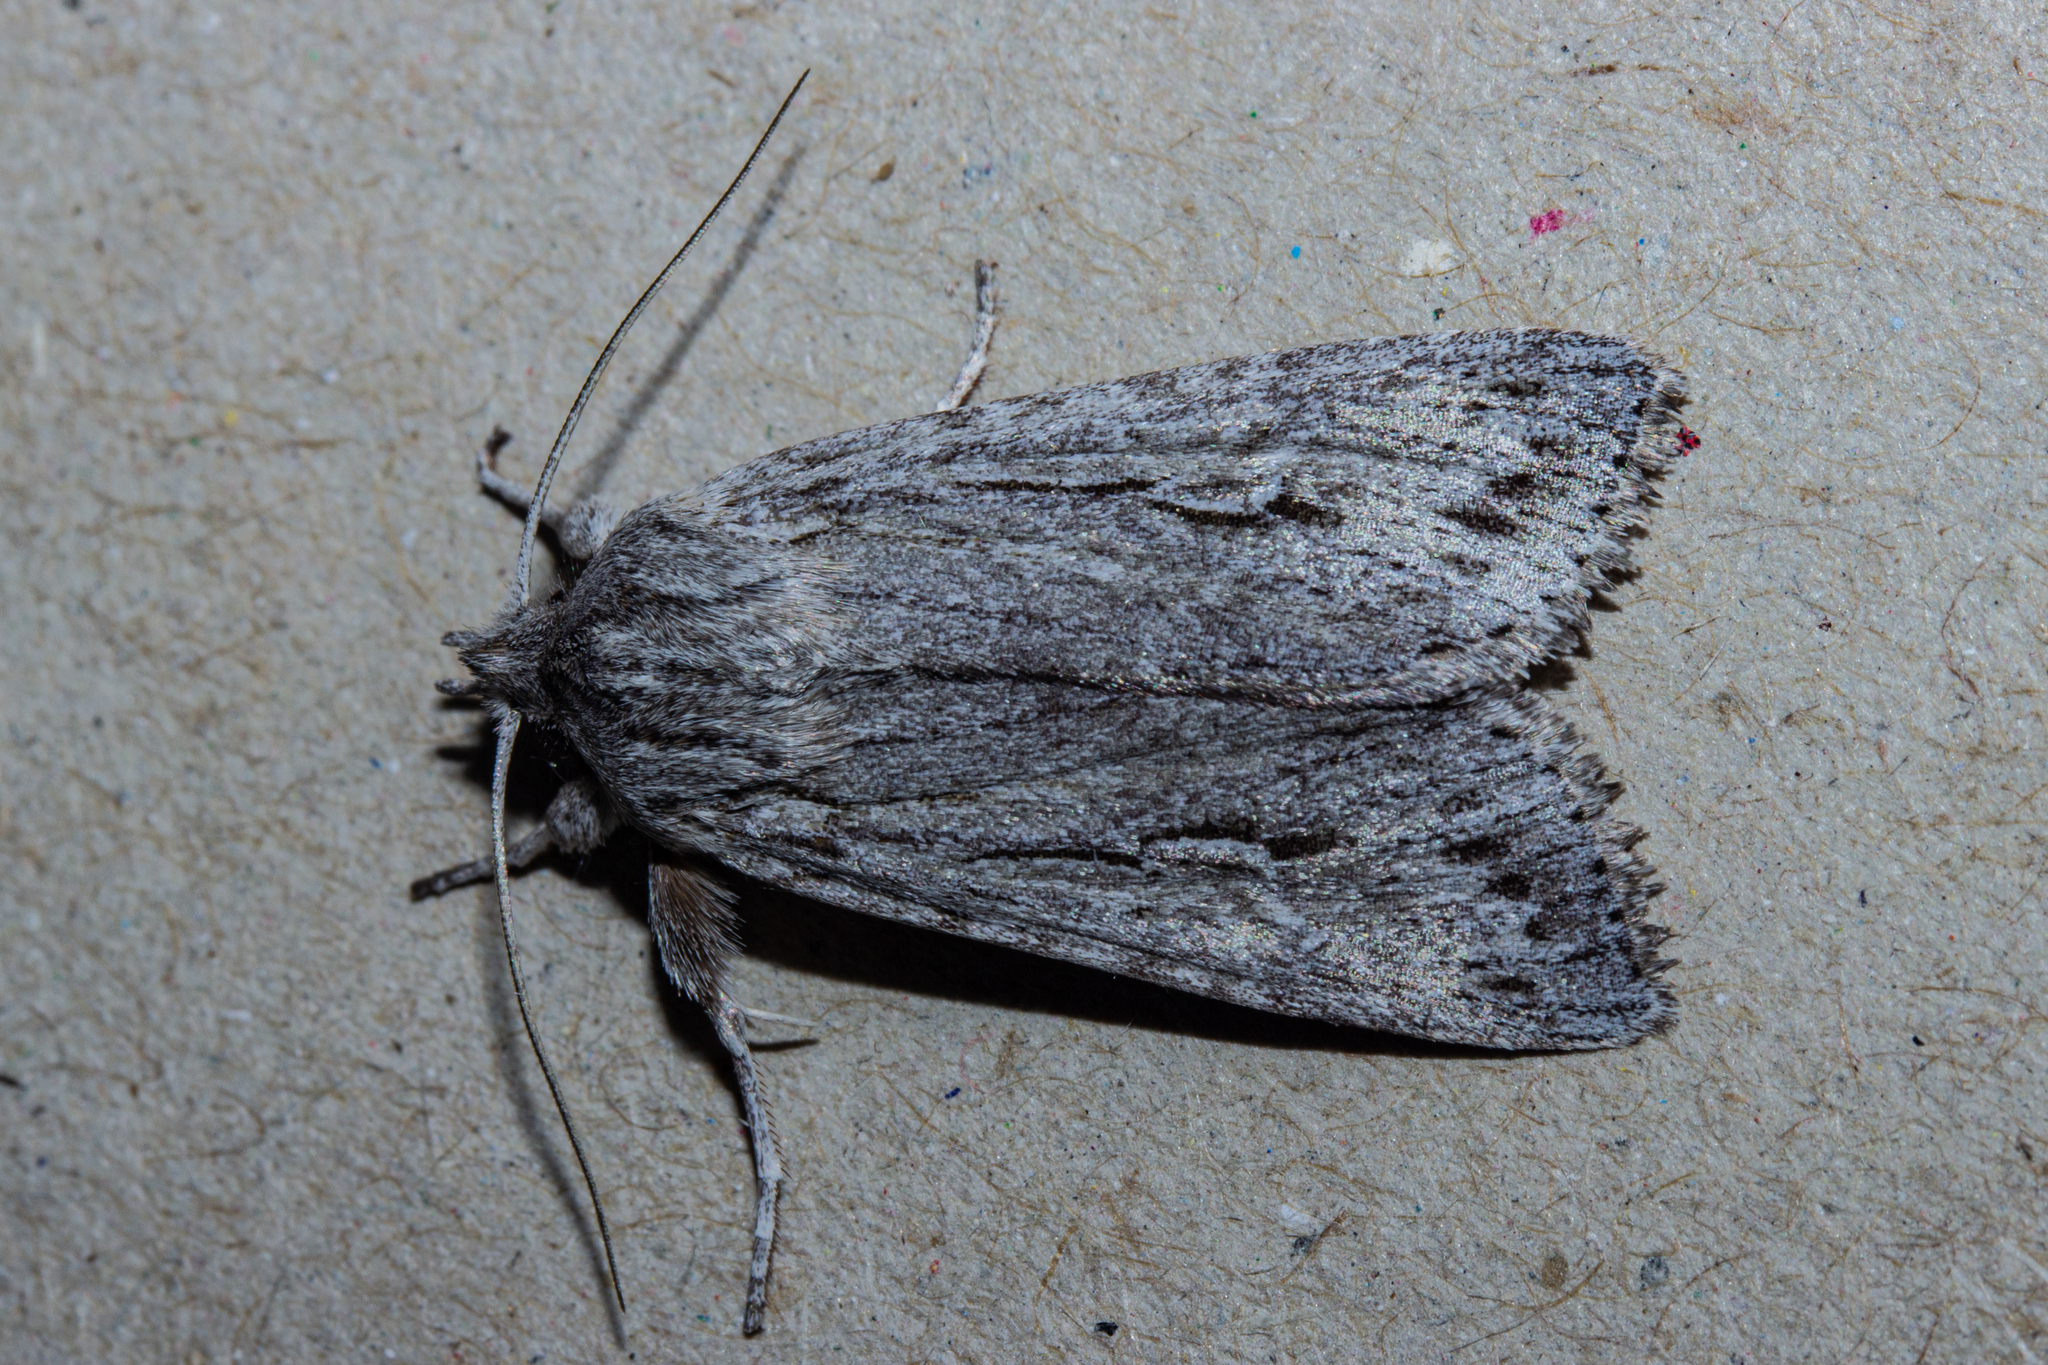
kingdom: Animalia
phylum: Arthropoda
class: Insecta
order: Lepidoptera
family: Noctuidae
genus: Physetica
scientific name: Physetica sequens
